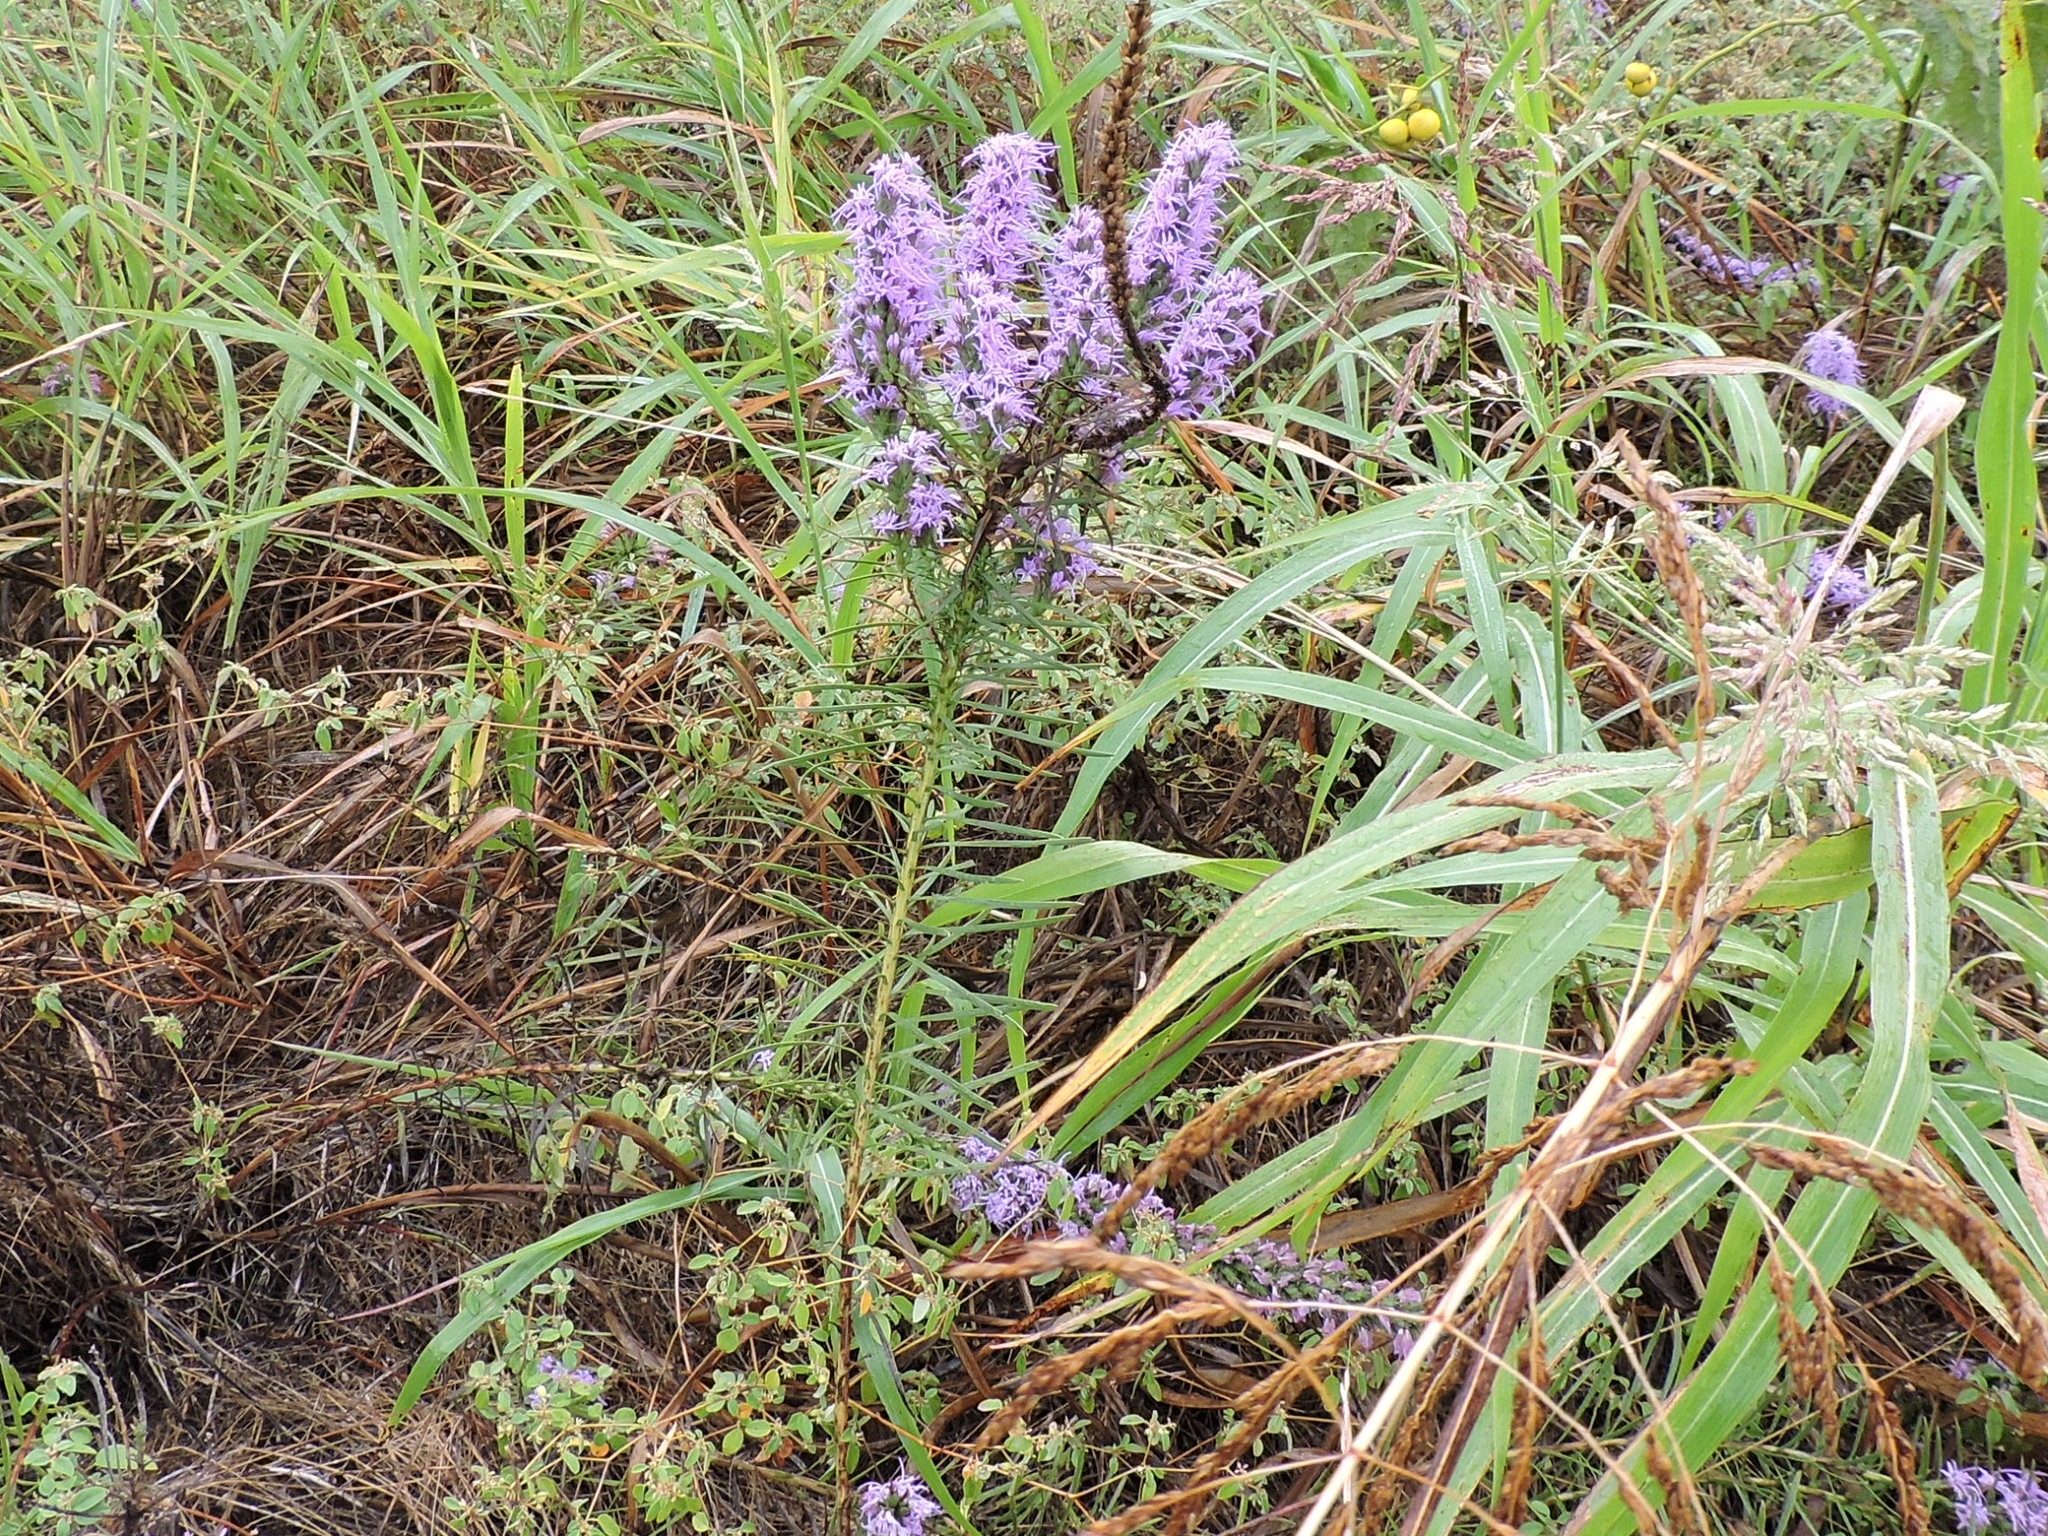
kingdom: Plantae
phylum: Tracheophyta
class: Magnoliopsida
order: Asterales
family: Asteraceae
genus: Liatris
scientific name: Liatris punctata
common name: Dotted gayfeather
